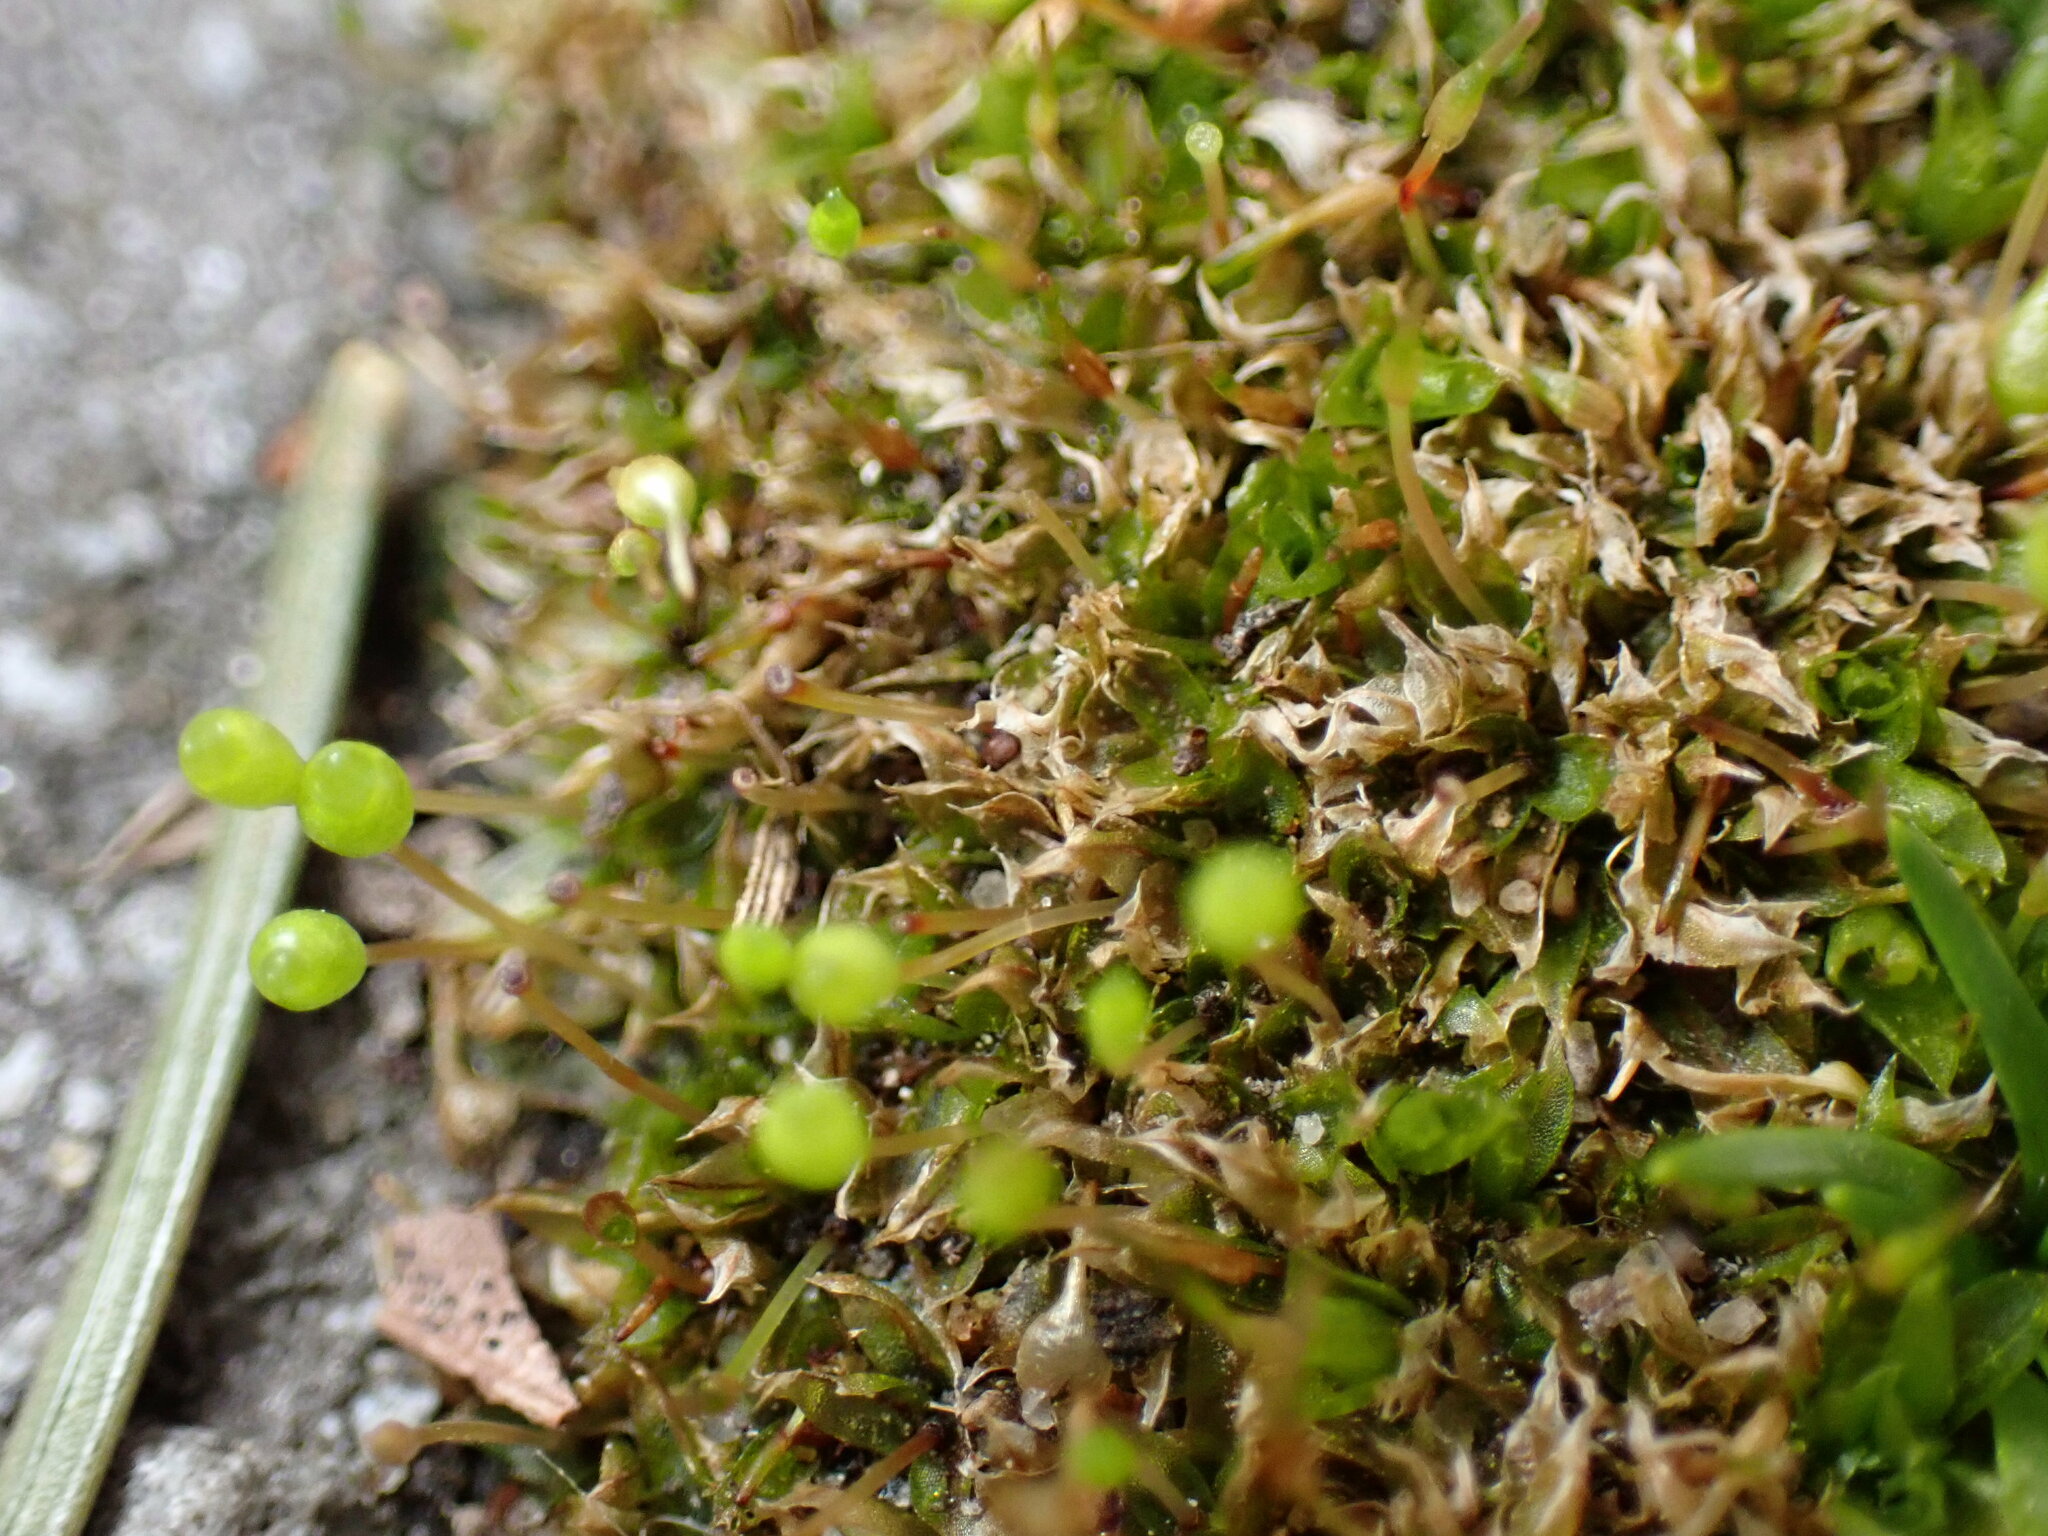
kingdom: Plantae
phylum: Bryophyta
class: Bryopsida
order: Funariales
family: Funariaceae
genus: Physcomitrium
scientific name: Physcomitrium pyriforme
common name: Common bladder-moss
